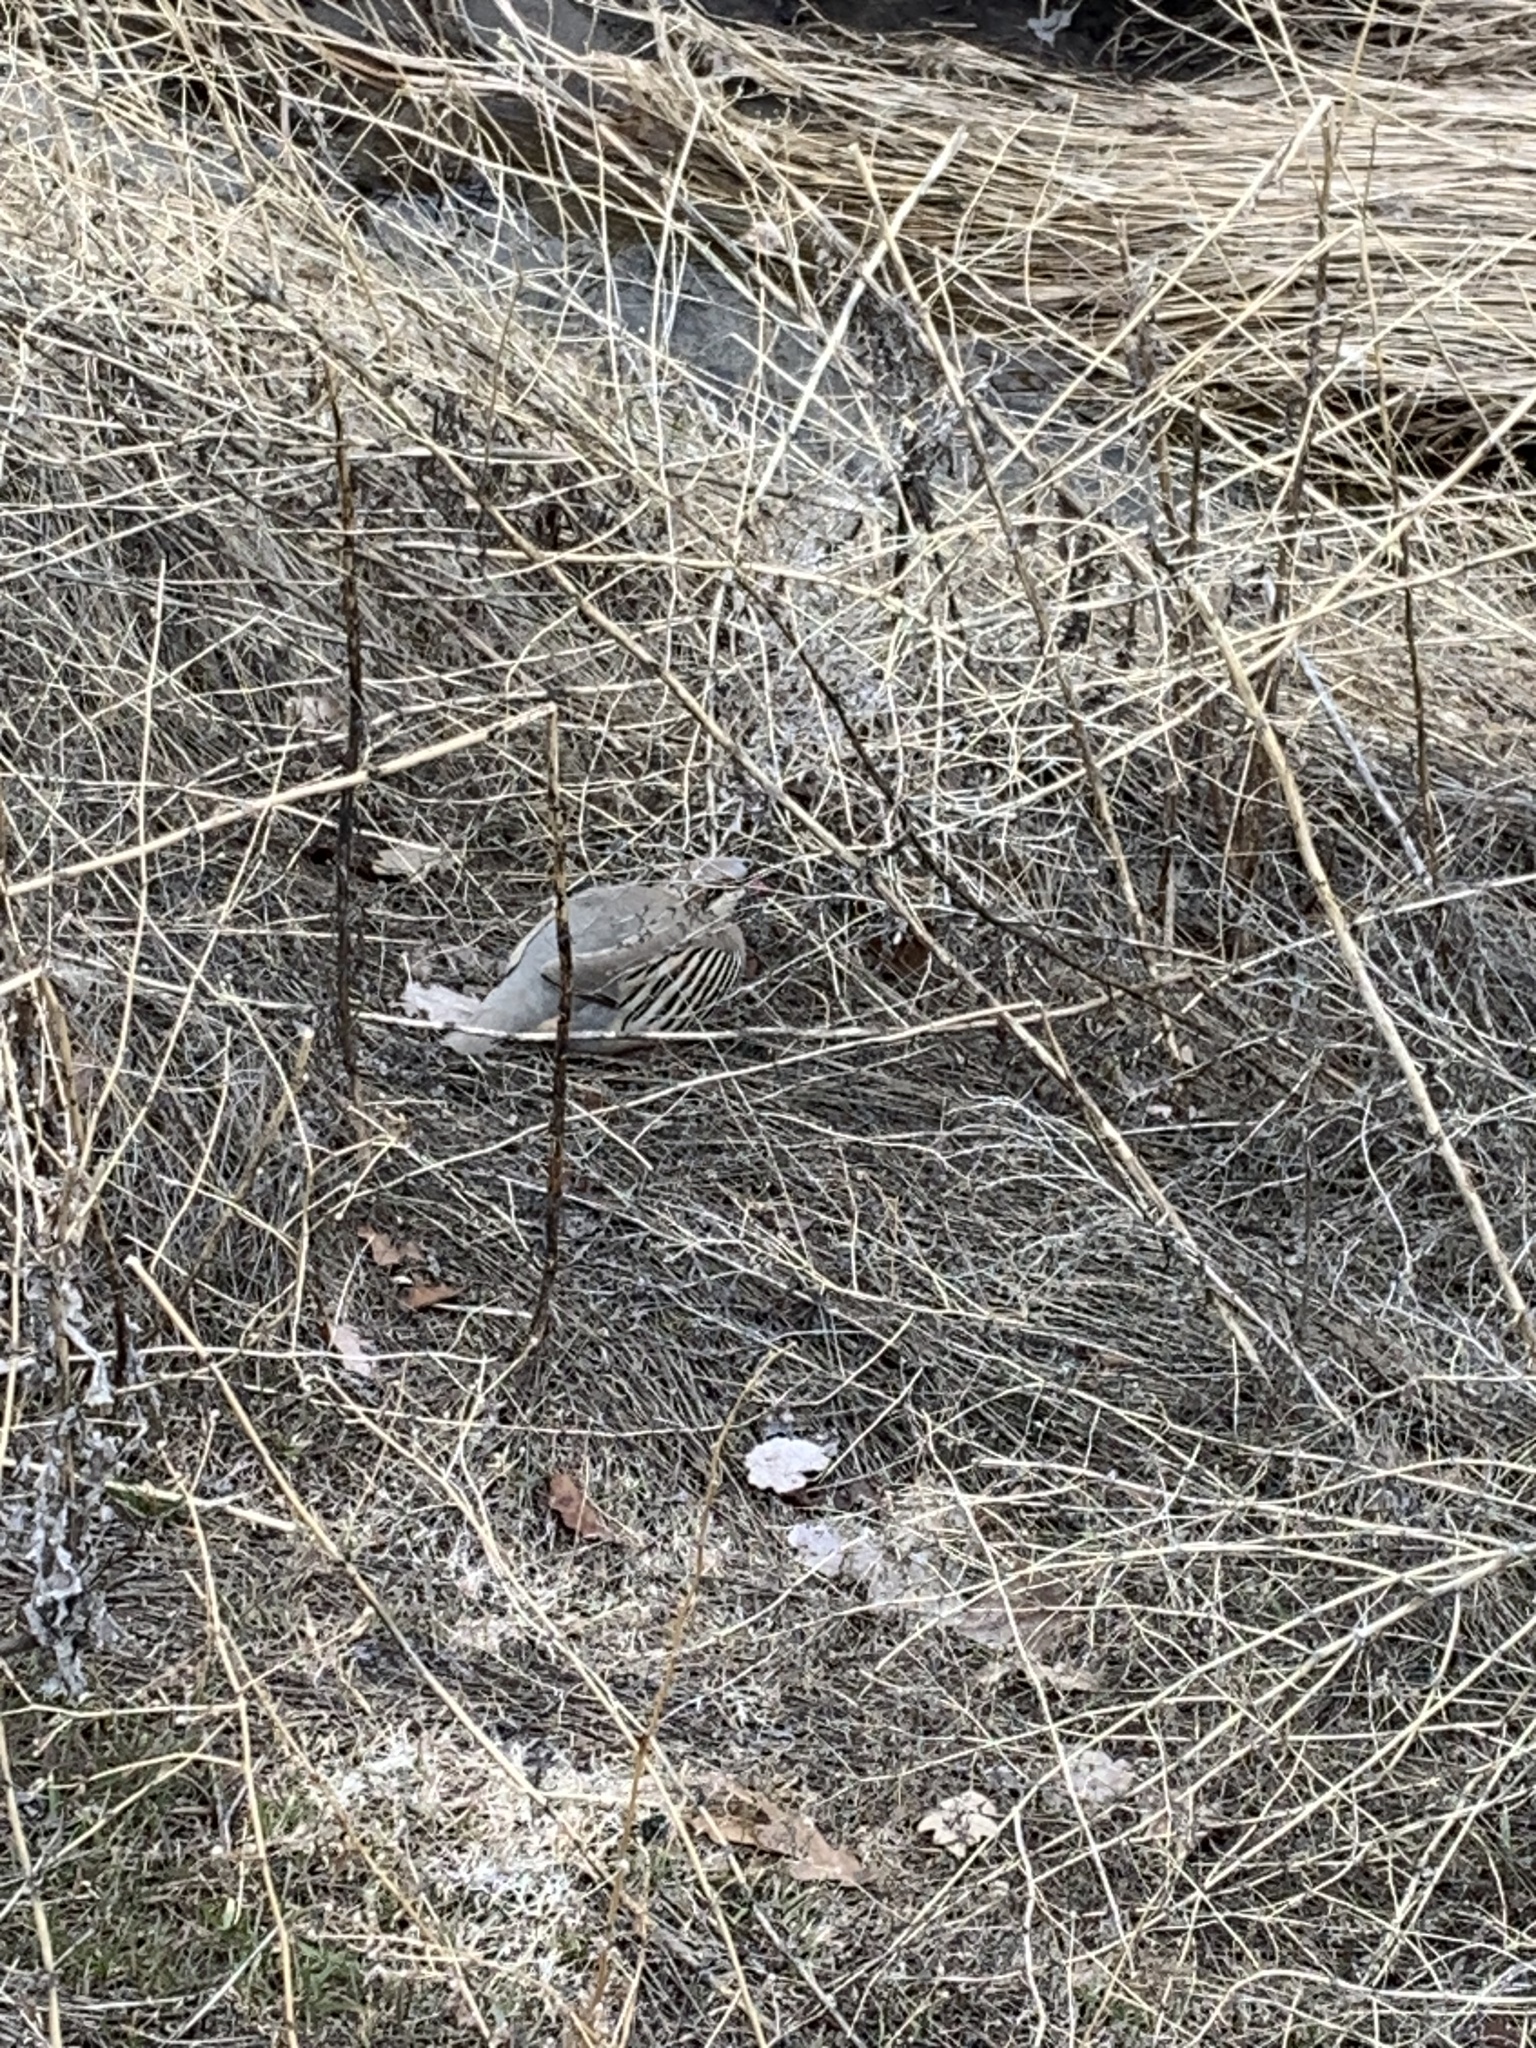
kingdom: Animalia
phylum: Chordata
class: Aves
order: Galliformes
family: Phasianidae
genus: Alectoris
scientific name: Alectoris chukar
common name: Chukar
